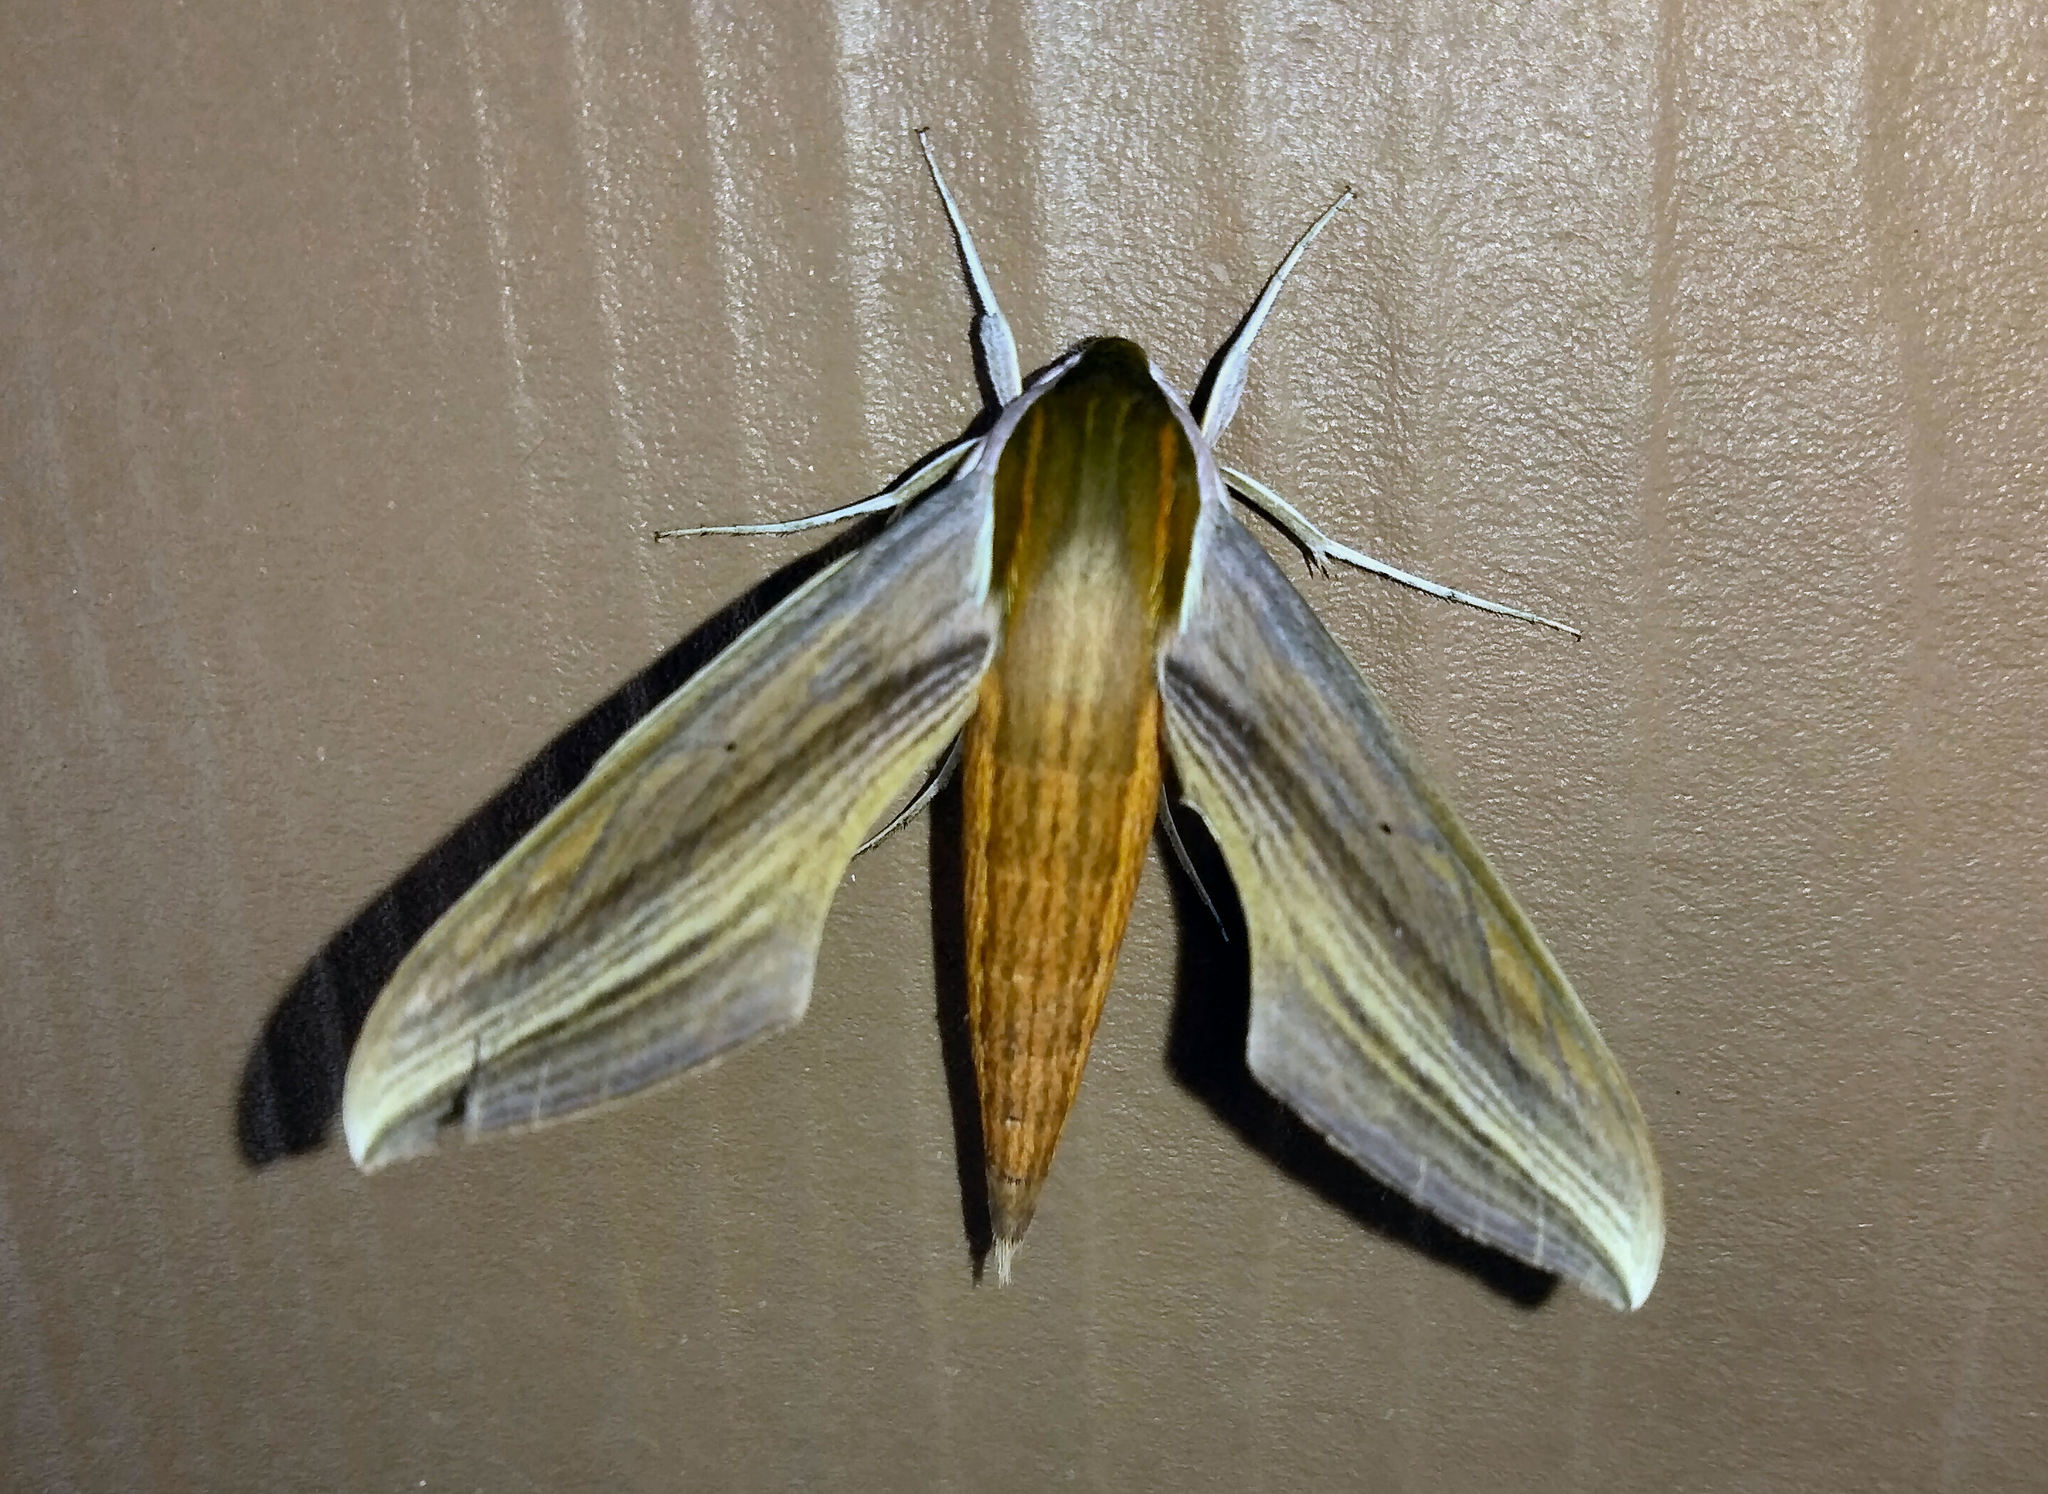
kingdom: Animalia
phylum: Arthropoda
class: Insecta
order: Lepidoptera
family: Sphingidae
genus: Xylophanes
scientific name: Xylophanes tersa
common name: Tersa sphinx
